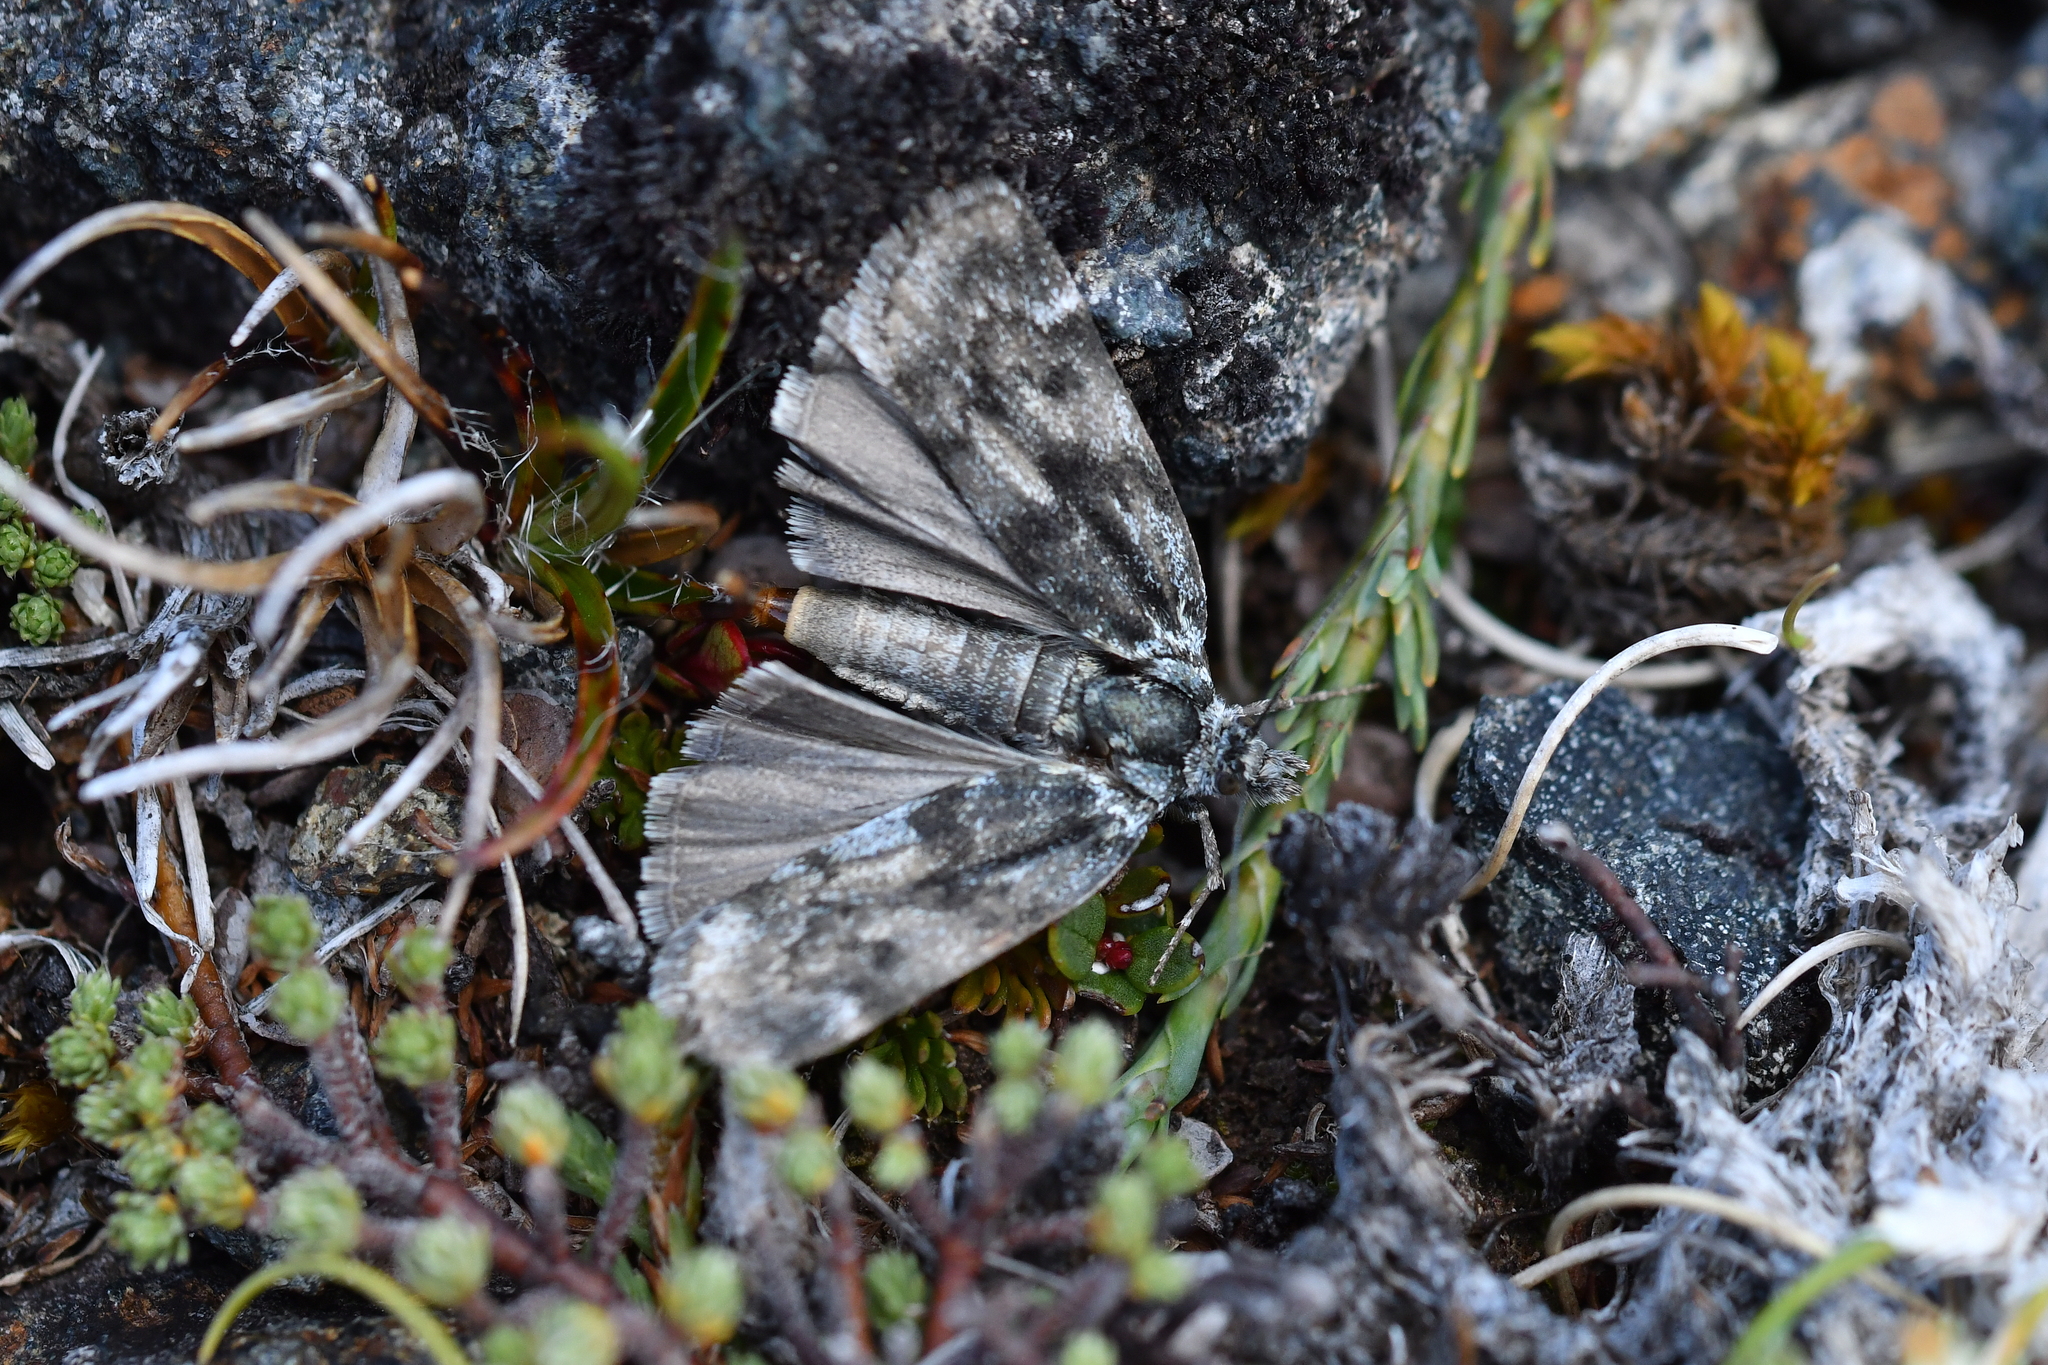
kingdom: Animalia
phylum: Arthropoda
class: Insecta
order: Lepidoptera
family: Crambidae
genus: Tawhitia
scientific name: Tawhitia glaucophanes
